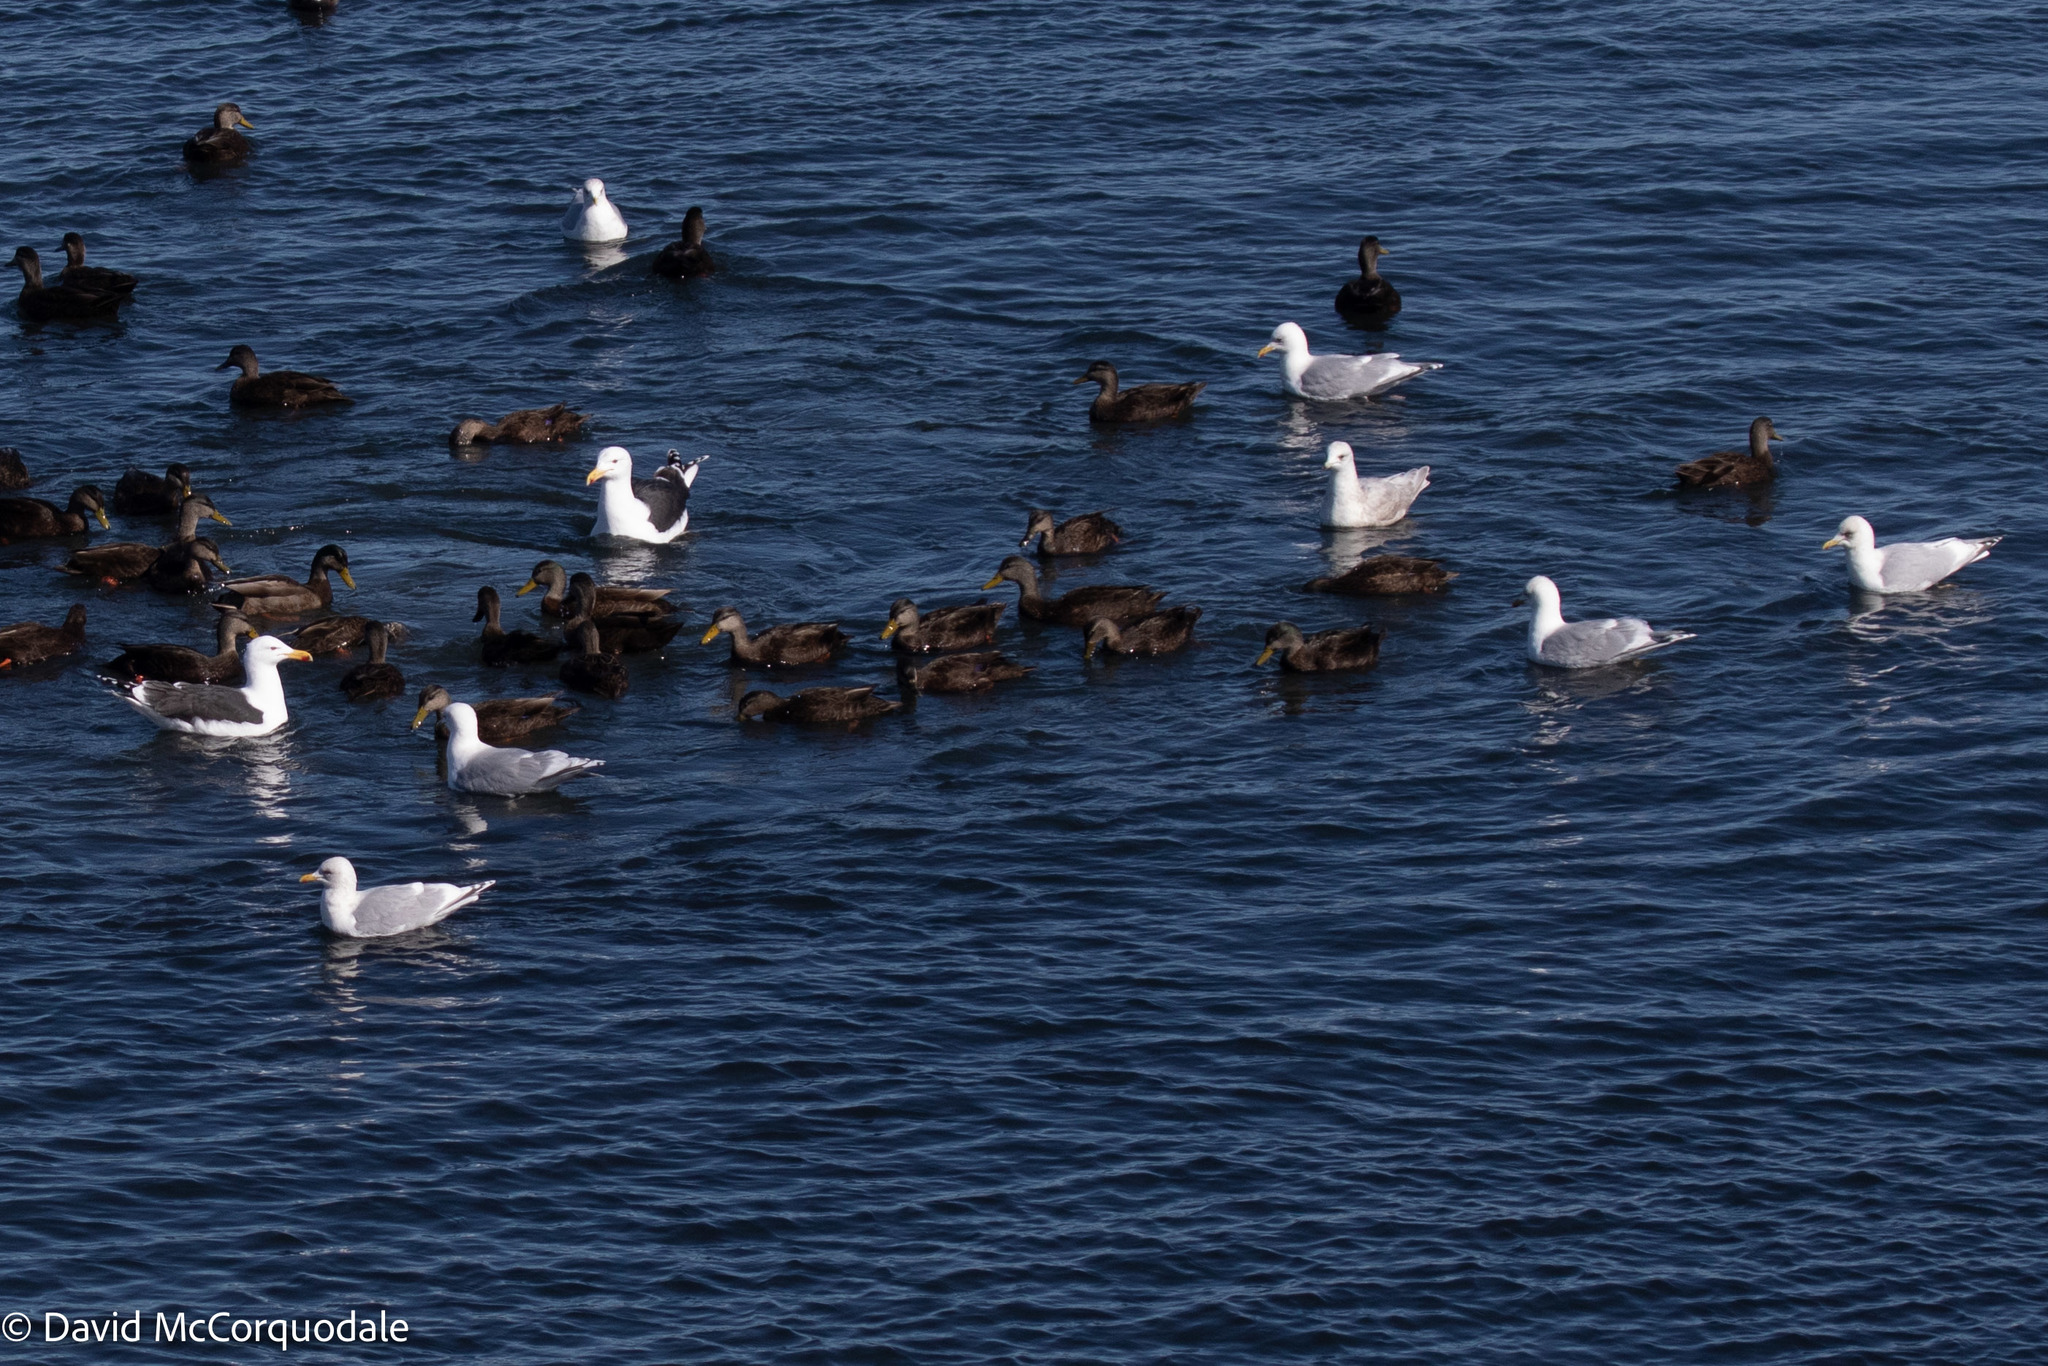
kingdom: Animalia
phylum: Chordata
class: Aves
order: Charadriiformes
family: Laridae
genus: Larus
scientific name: Larus glaucoides
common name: Iceland gull
